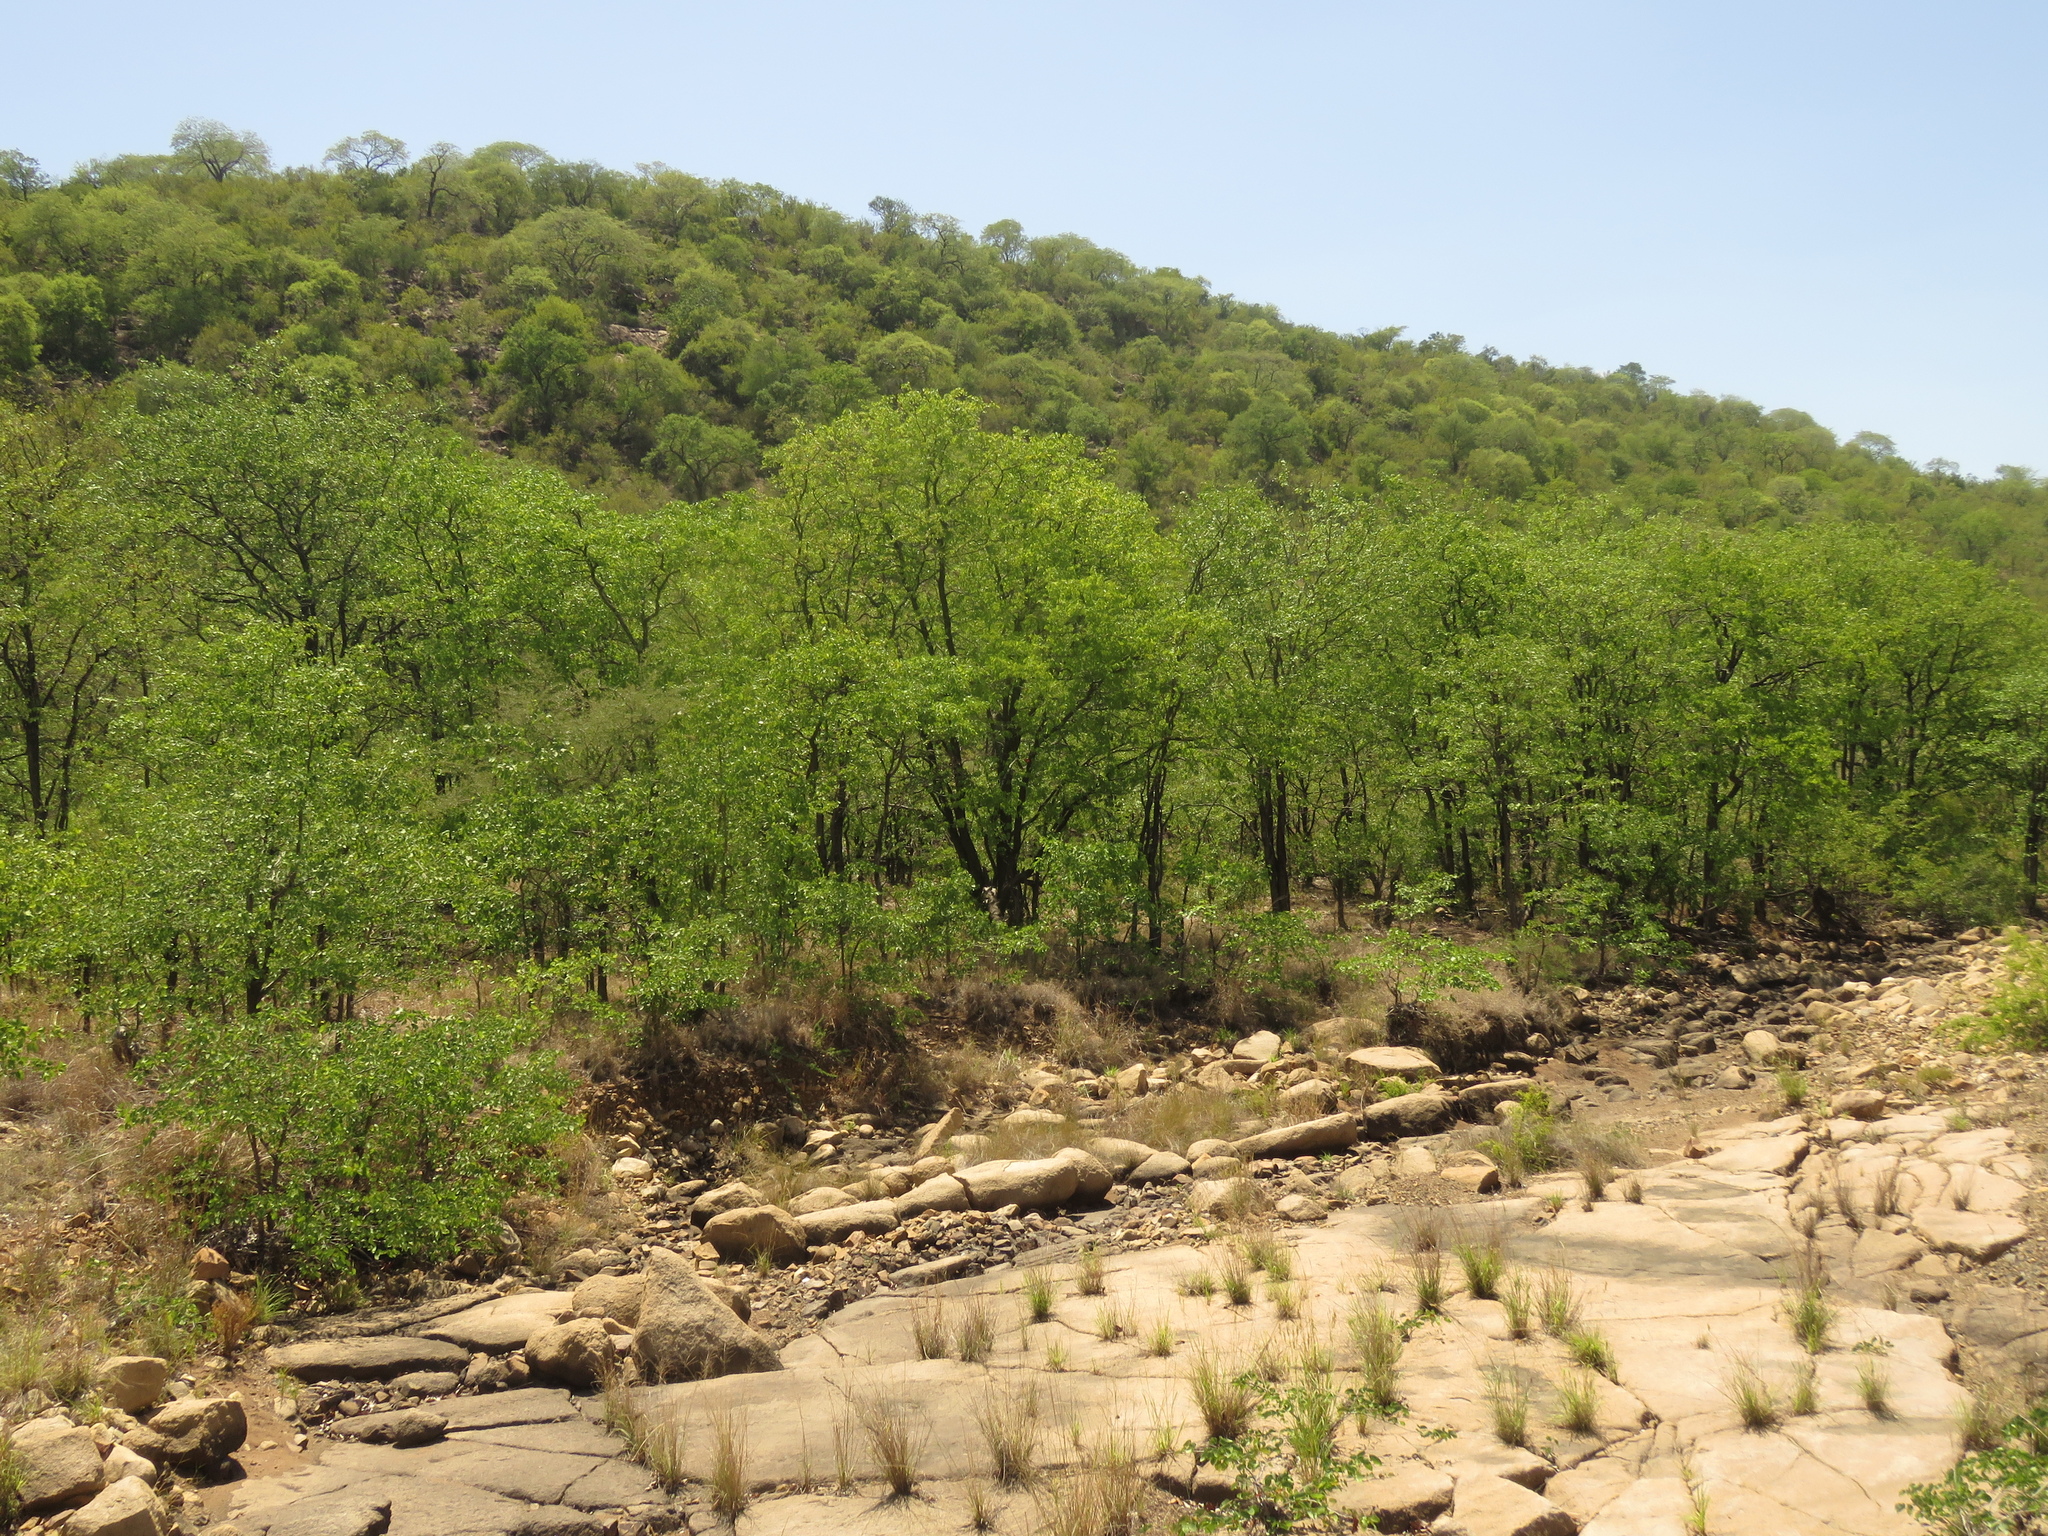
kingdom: Plantae
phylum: Tracheophyta
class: Magnoliopsida
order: Fabales
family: Fabaceae
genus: Colophospermum
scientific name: Colophospermum mopane
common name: Mopane
